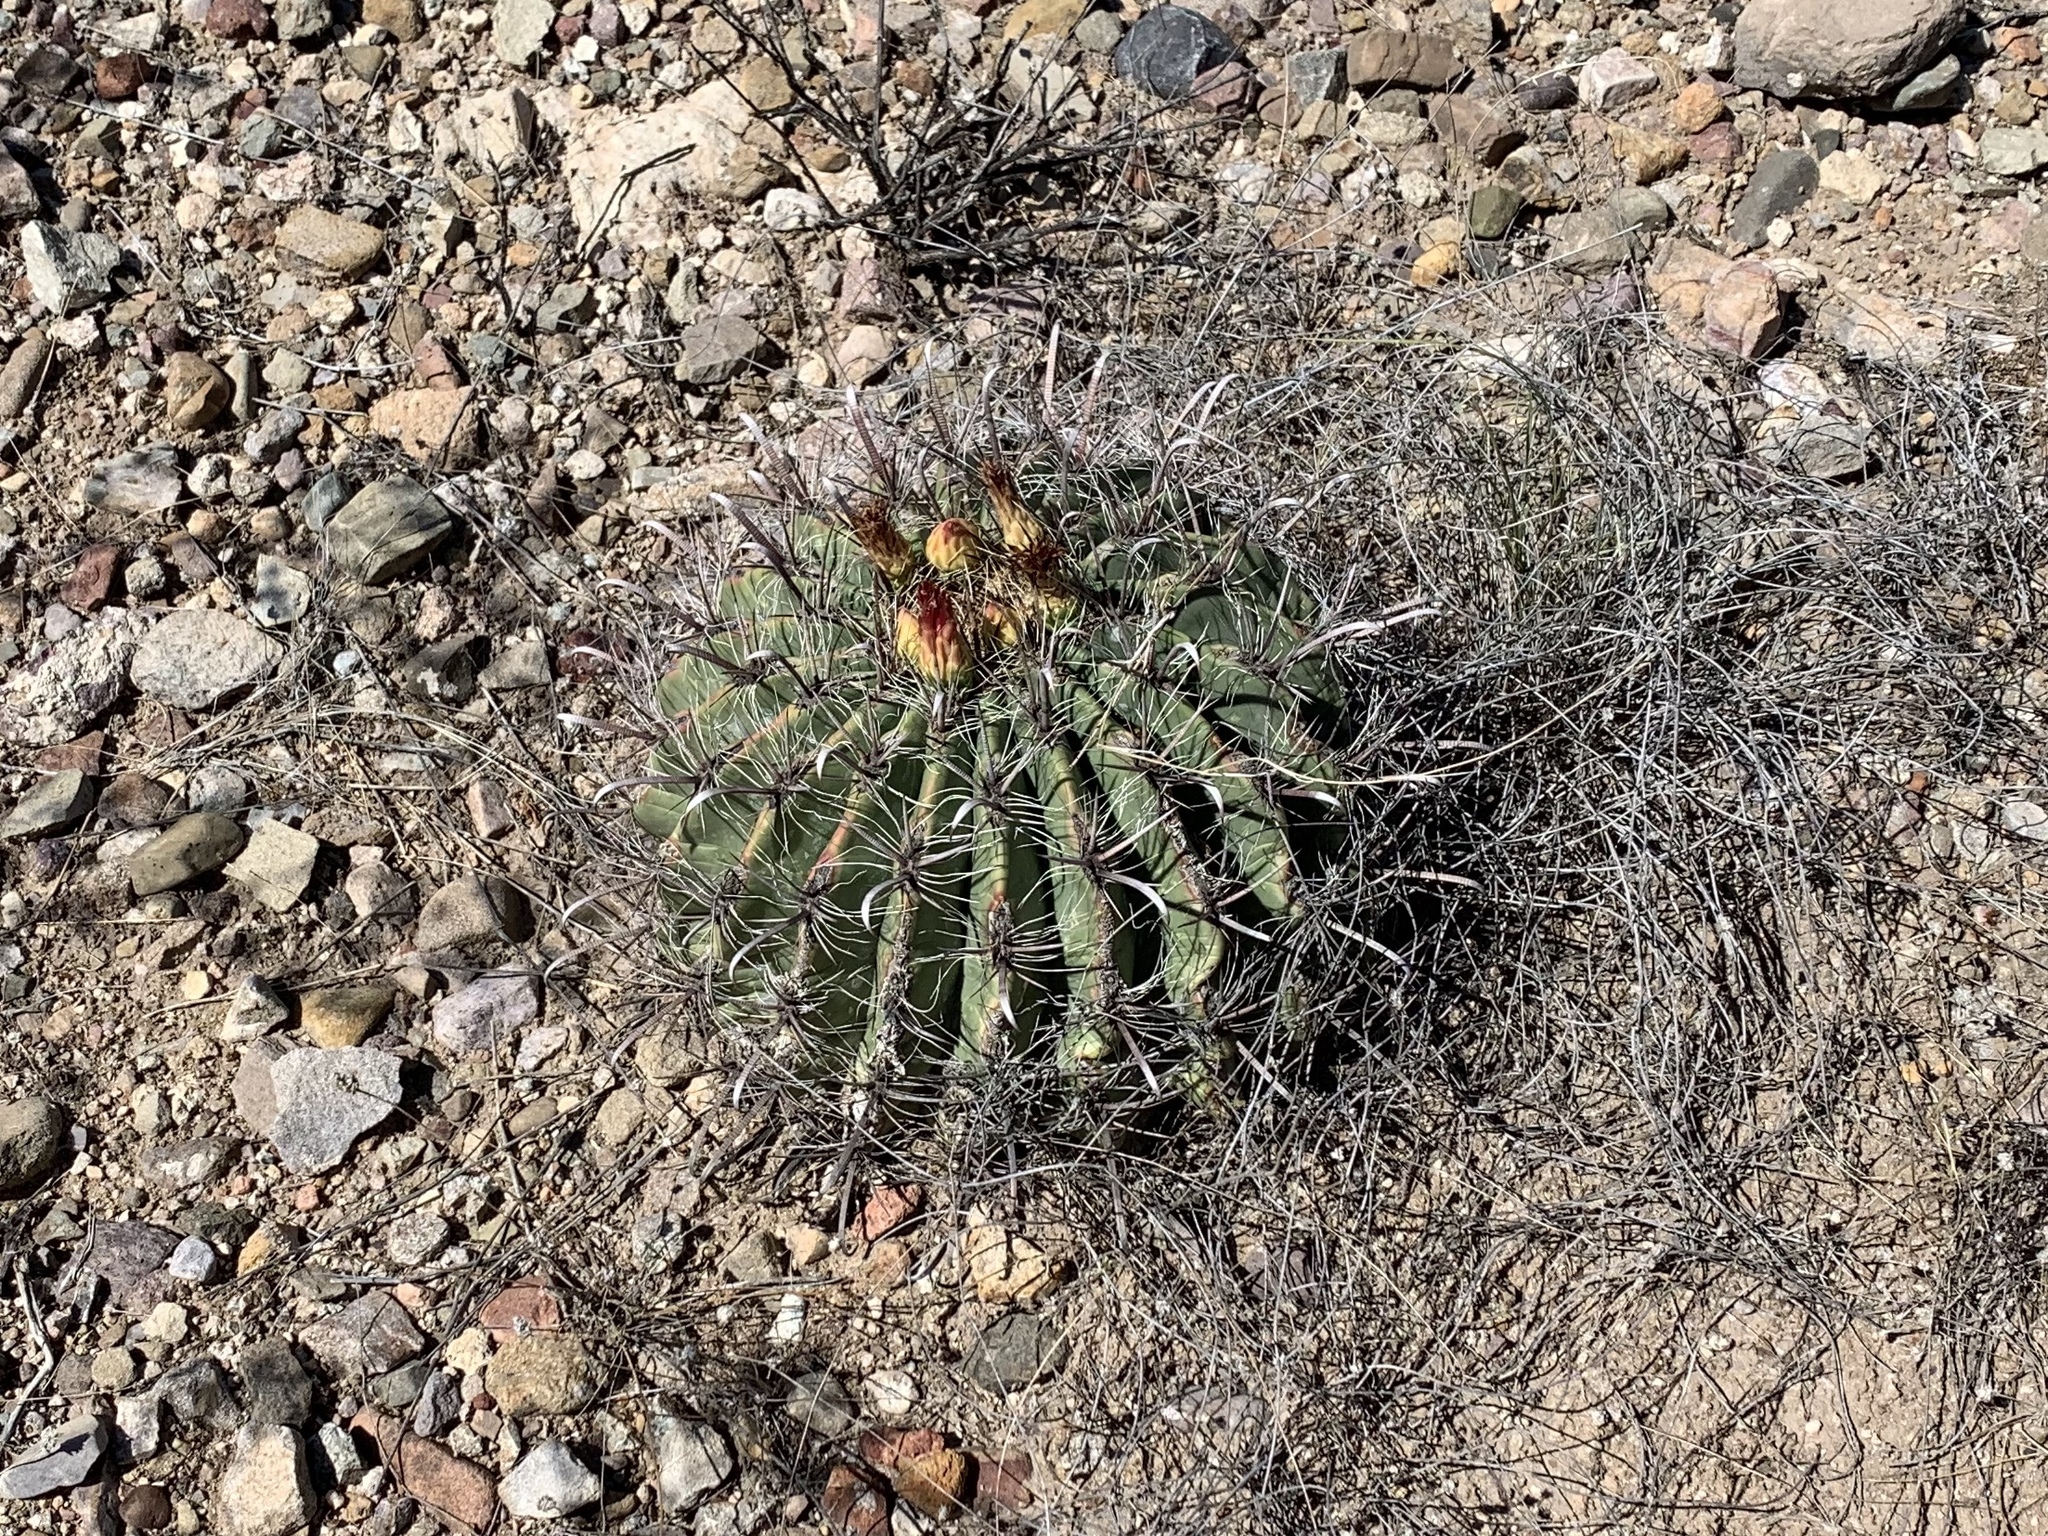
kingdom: Plantae
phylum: Tracheophyta
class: Magnoliopsida
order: Caryophyllales
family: Cactaceae
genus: Ferocactus
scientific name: Ferocactus wislizeni
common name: Candy barrel cactus
